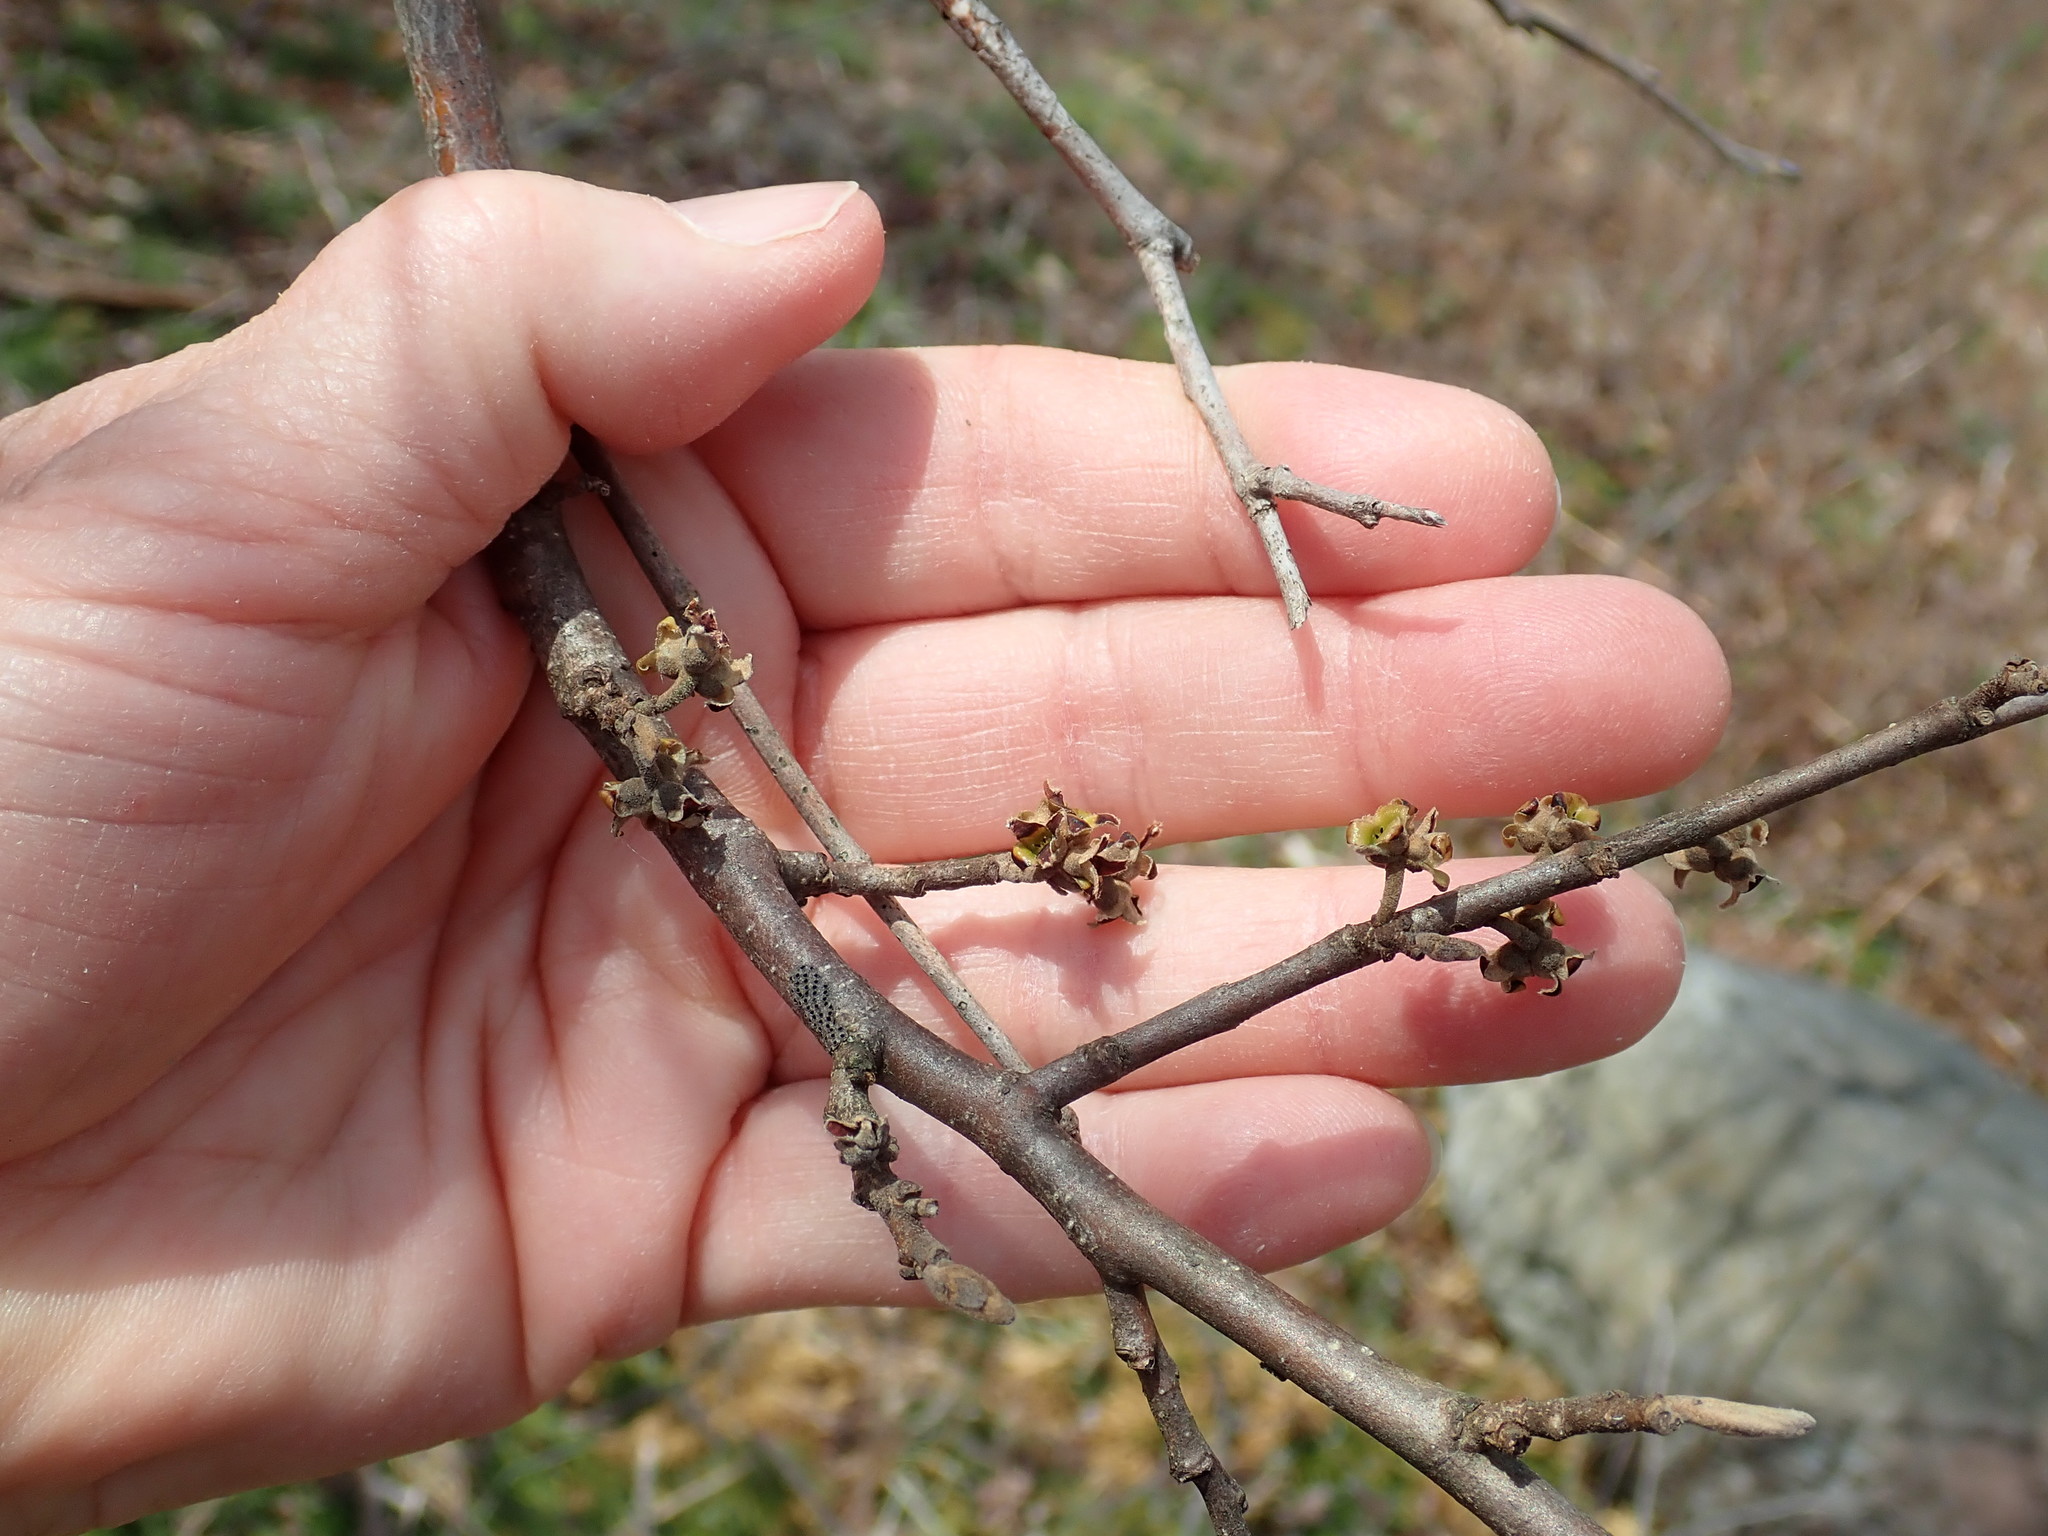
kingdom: Plantae
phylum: Tracheophyta
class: Magnoliopsida
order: Saxifragales
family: Hamamelidaceae
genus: Hamamelis
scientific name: Hamamelis virginiana
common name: Witch-hazel
